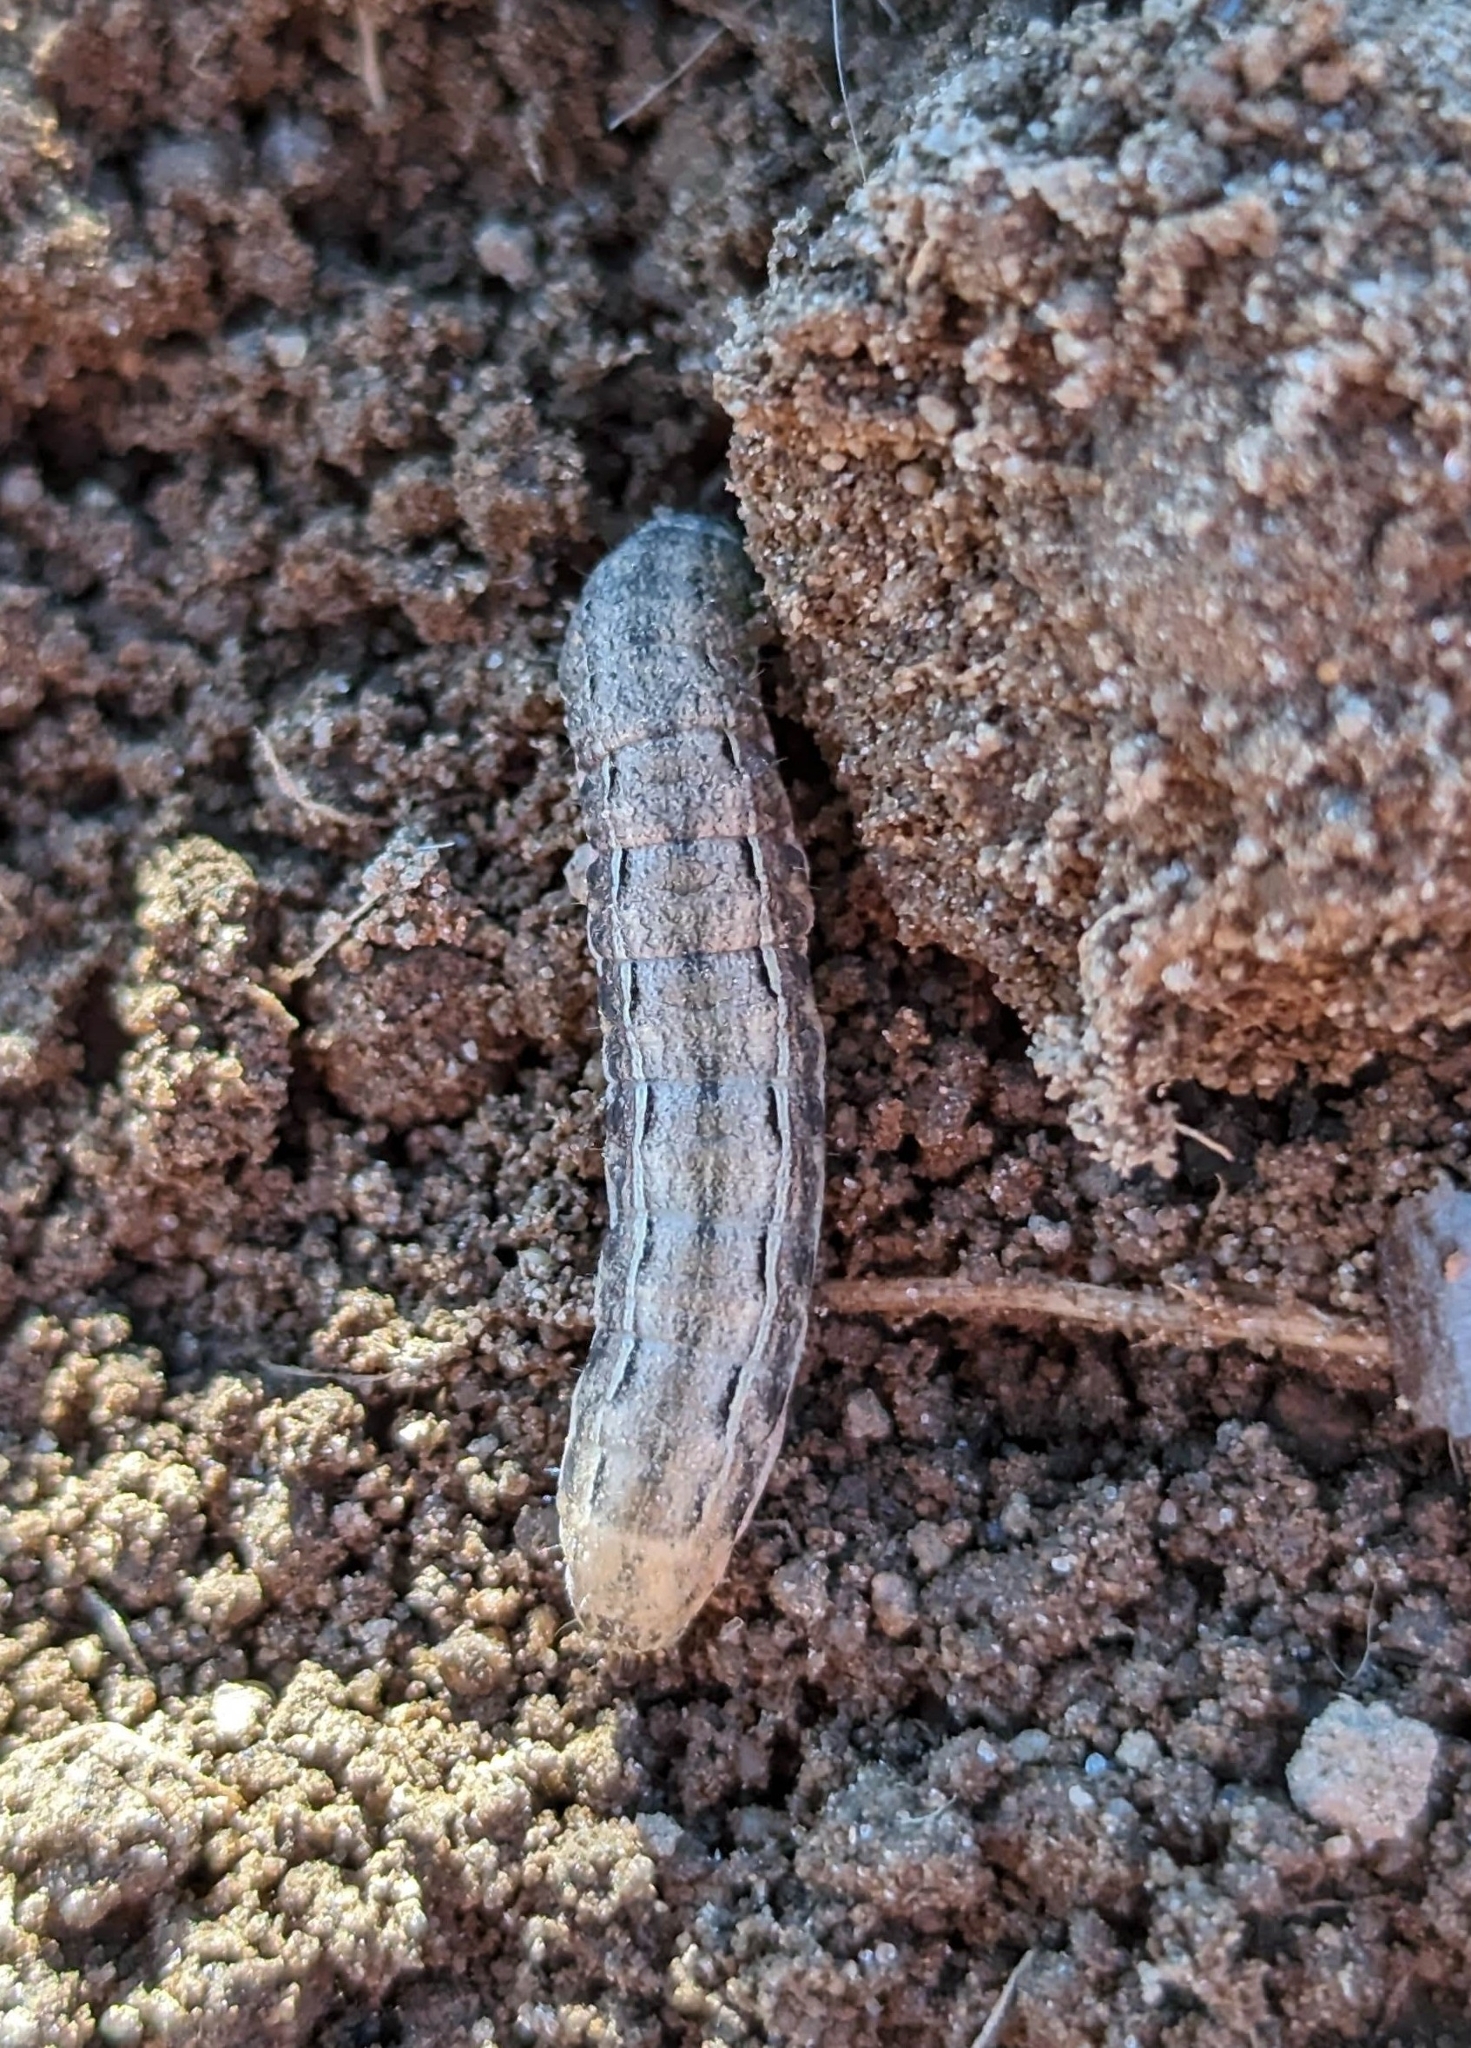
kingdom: Animalia
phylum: Arthropoda
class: Insecta
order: Lepidoptera
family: Noctuidae
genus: Noctua
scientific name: Noctua pronuba
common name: Large yellow underwing
